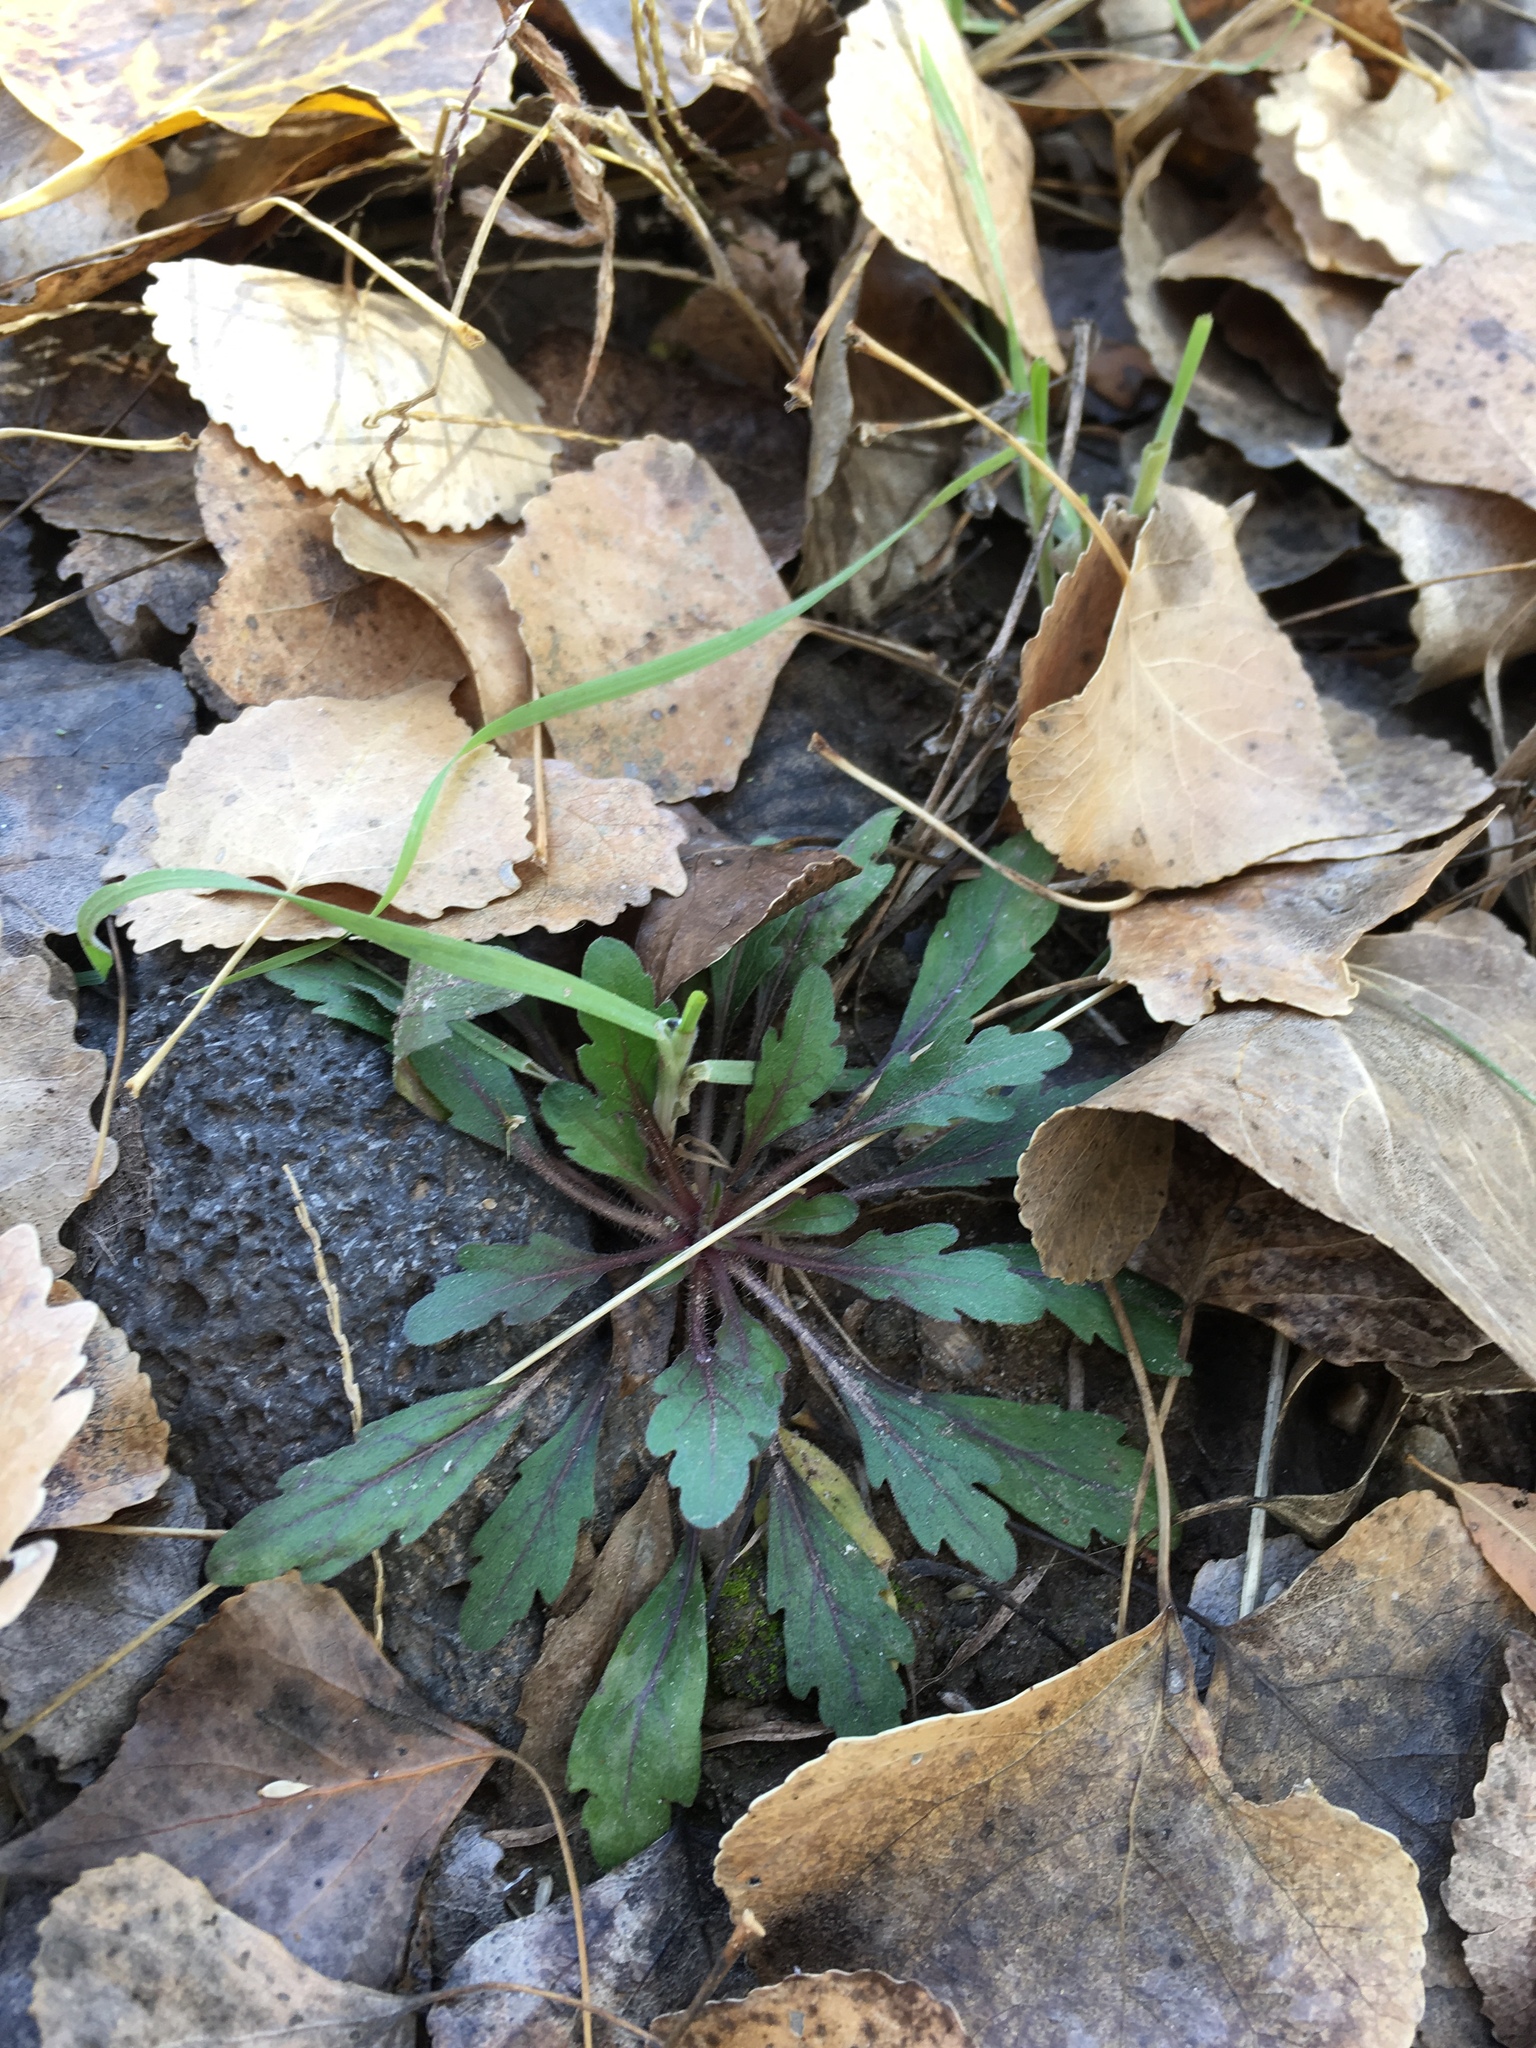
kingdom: Plantae
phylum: Tracheophyta
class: Magnoliopsida
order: Asterales
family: Asteraceae
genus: Erigeron
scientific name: Erigeron canadensis
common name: Canadian fleabane
